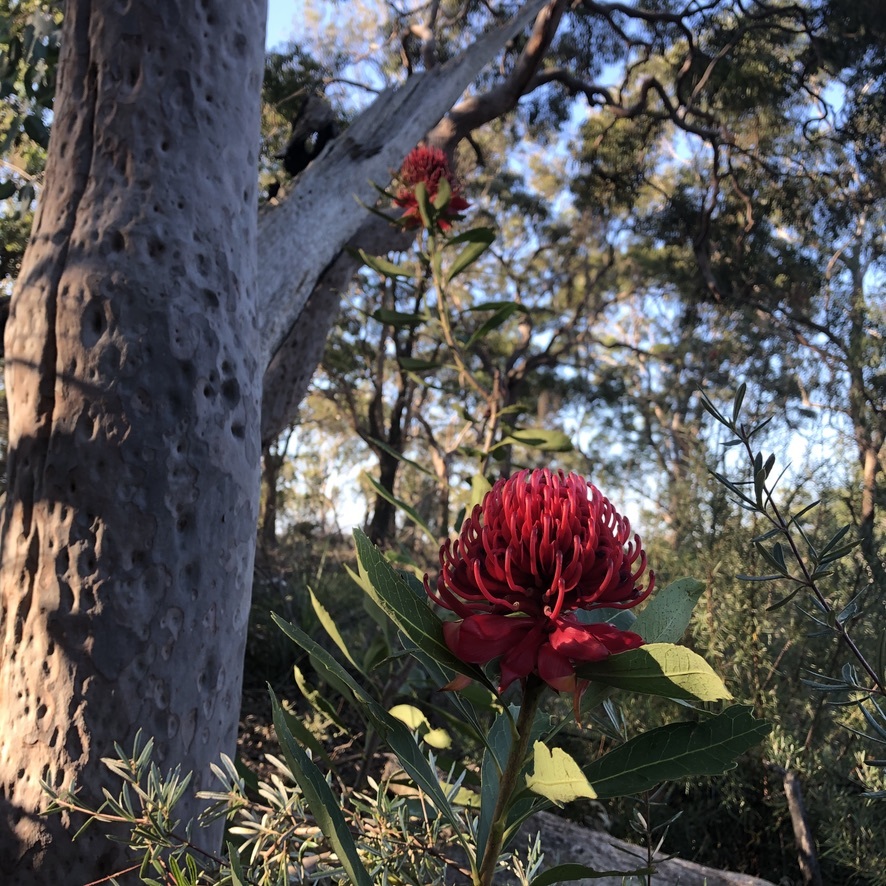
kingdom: Plantae
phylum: Tracheophyta
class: Magnoliopsida
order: Proteales
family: Proteaceae
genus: Telopea
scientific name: Telopea speciosissima
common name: New south wales waratah
